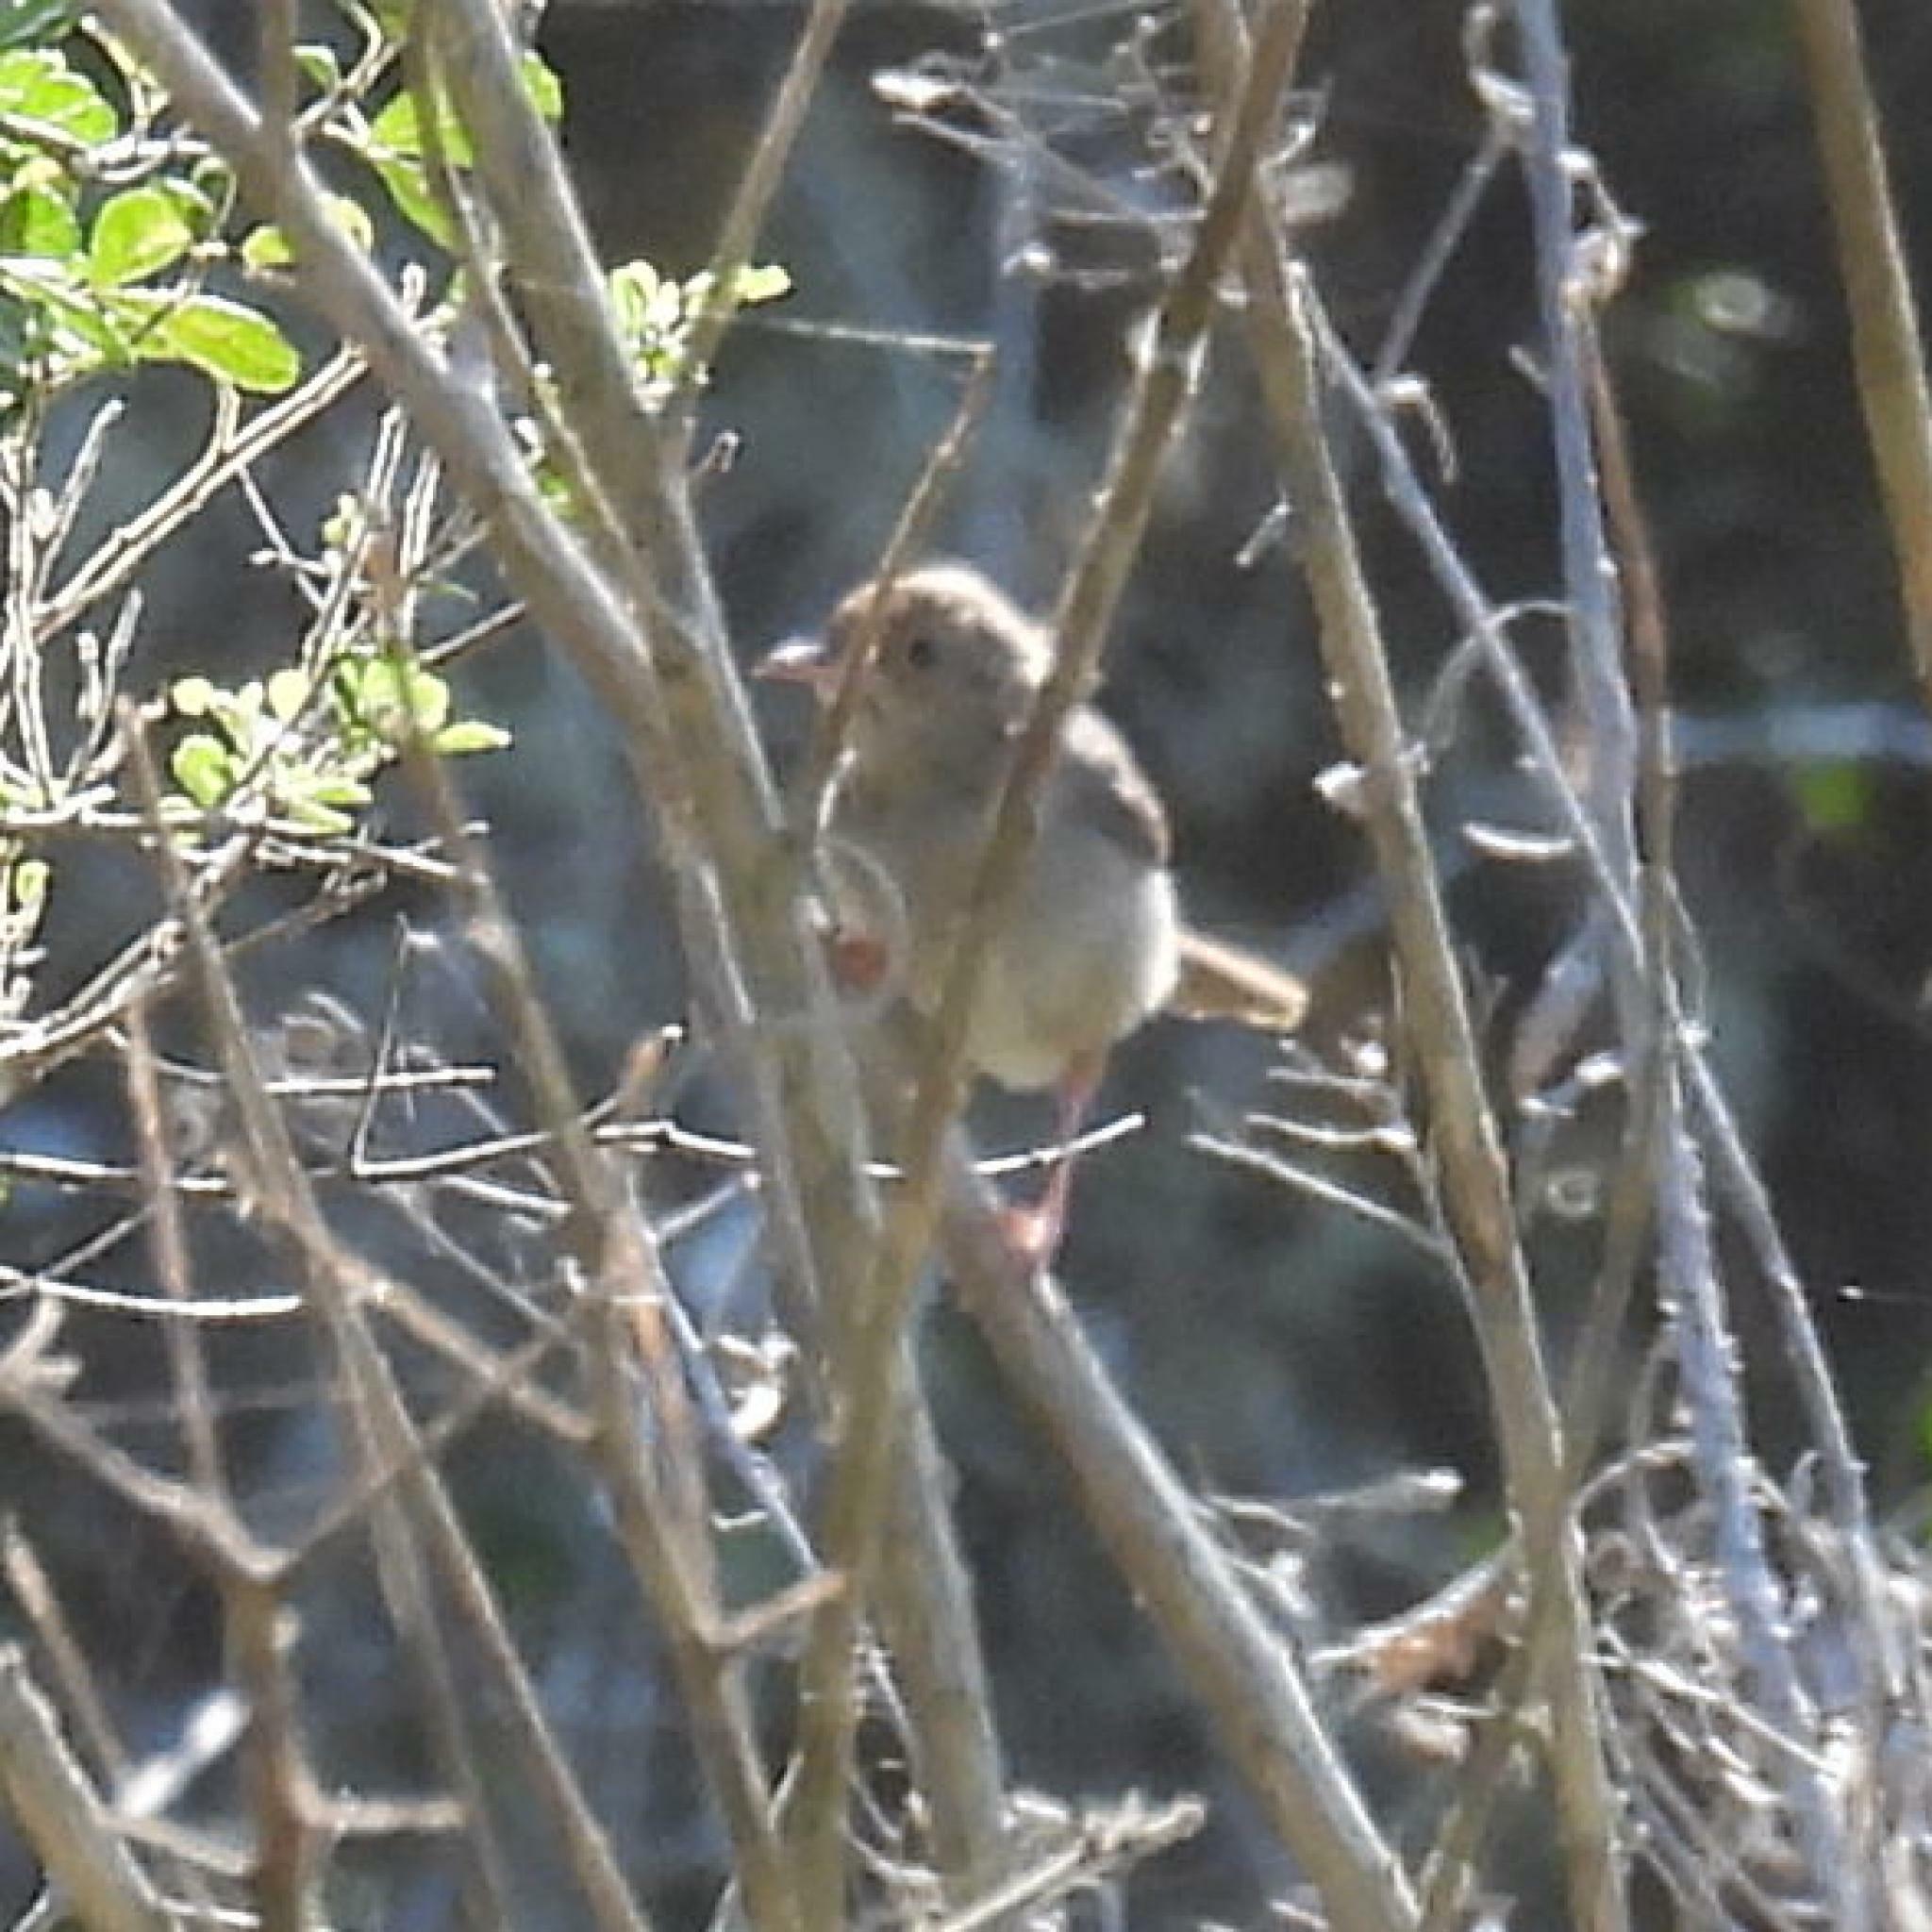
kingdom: Animalia
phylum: Chordata
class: Aves
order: Passeriformes
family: Cisticolidae
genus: Cisticola
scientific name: Cisticola fulvicapilla
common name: Neddicky
